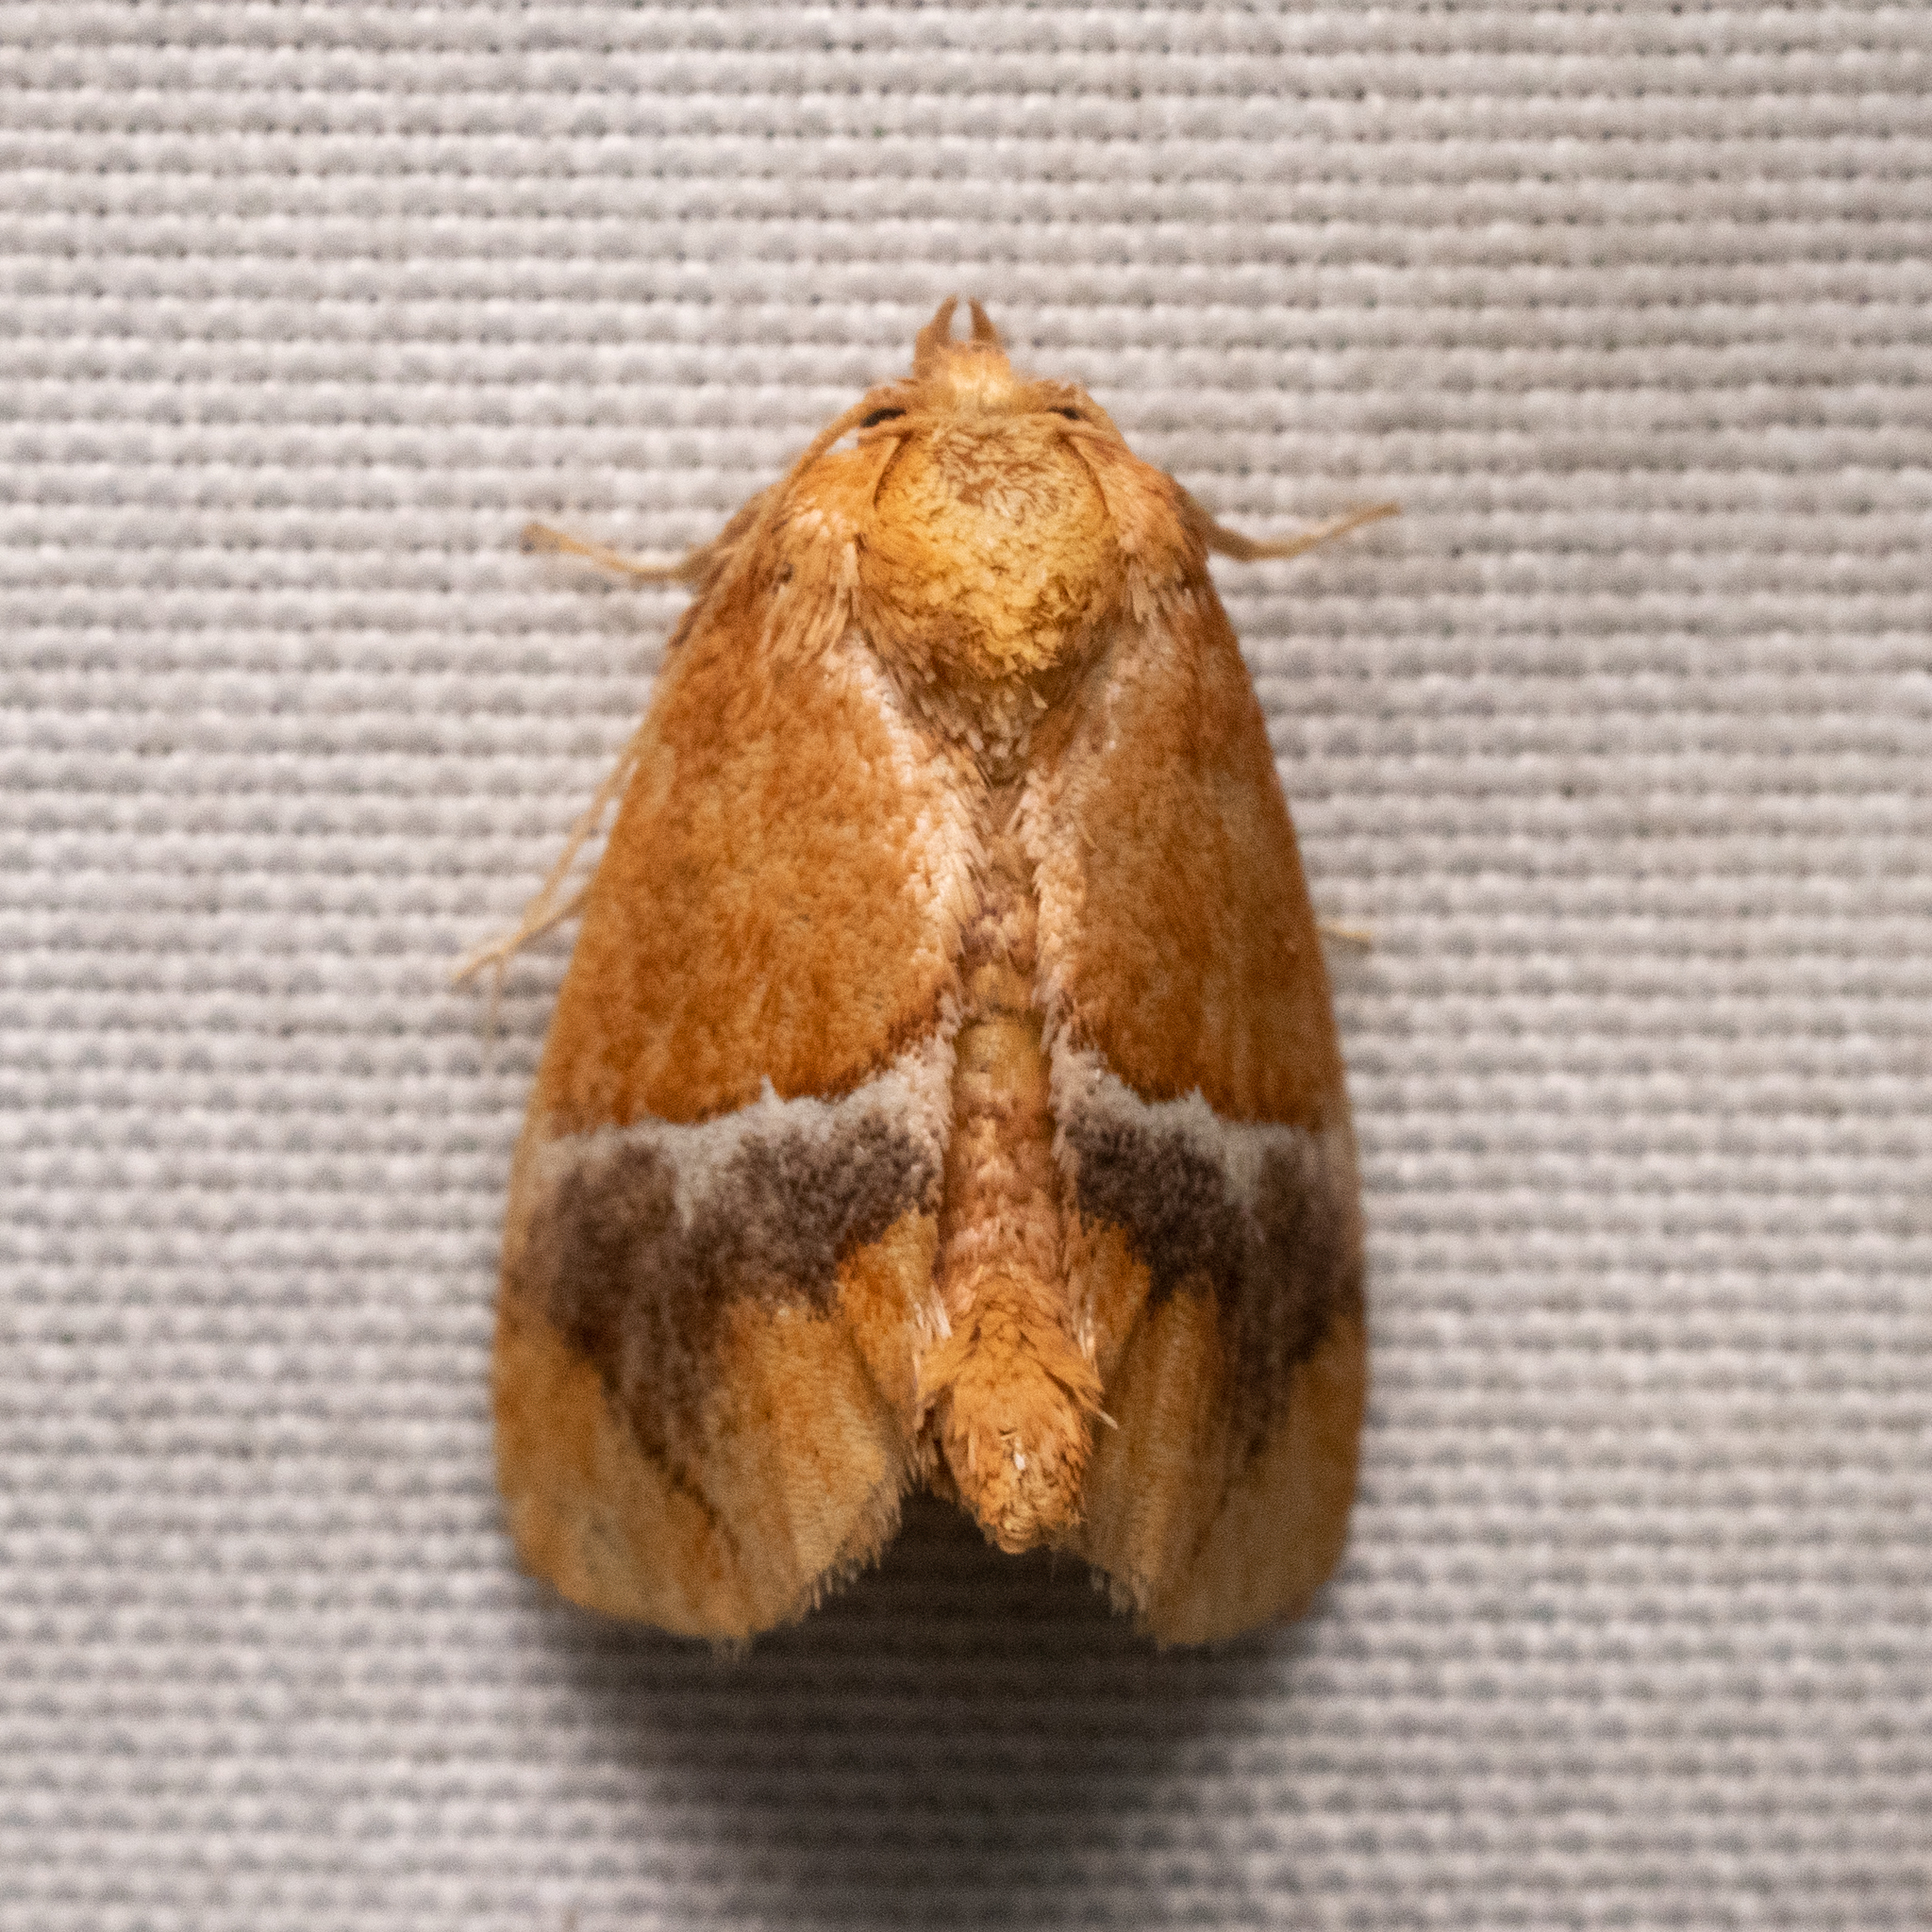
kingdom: Animalia
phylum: Arthropoda
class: Insecta
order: Lepidoptera
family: Limacodidae
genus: Lithacodes
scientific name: Lithacodes fasciola
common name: Yellow-shouldered slug moth
